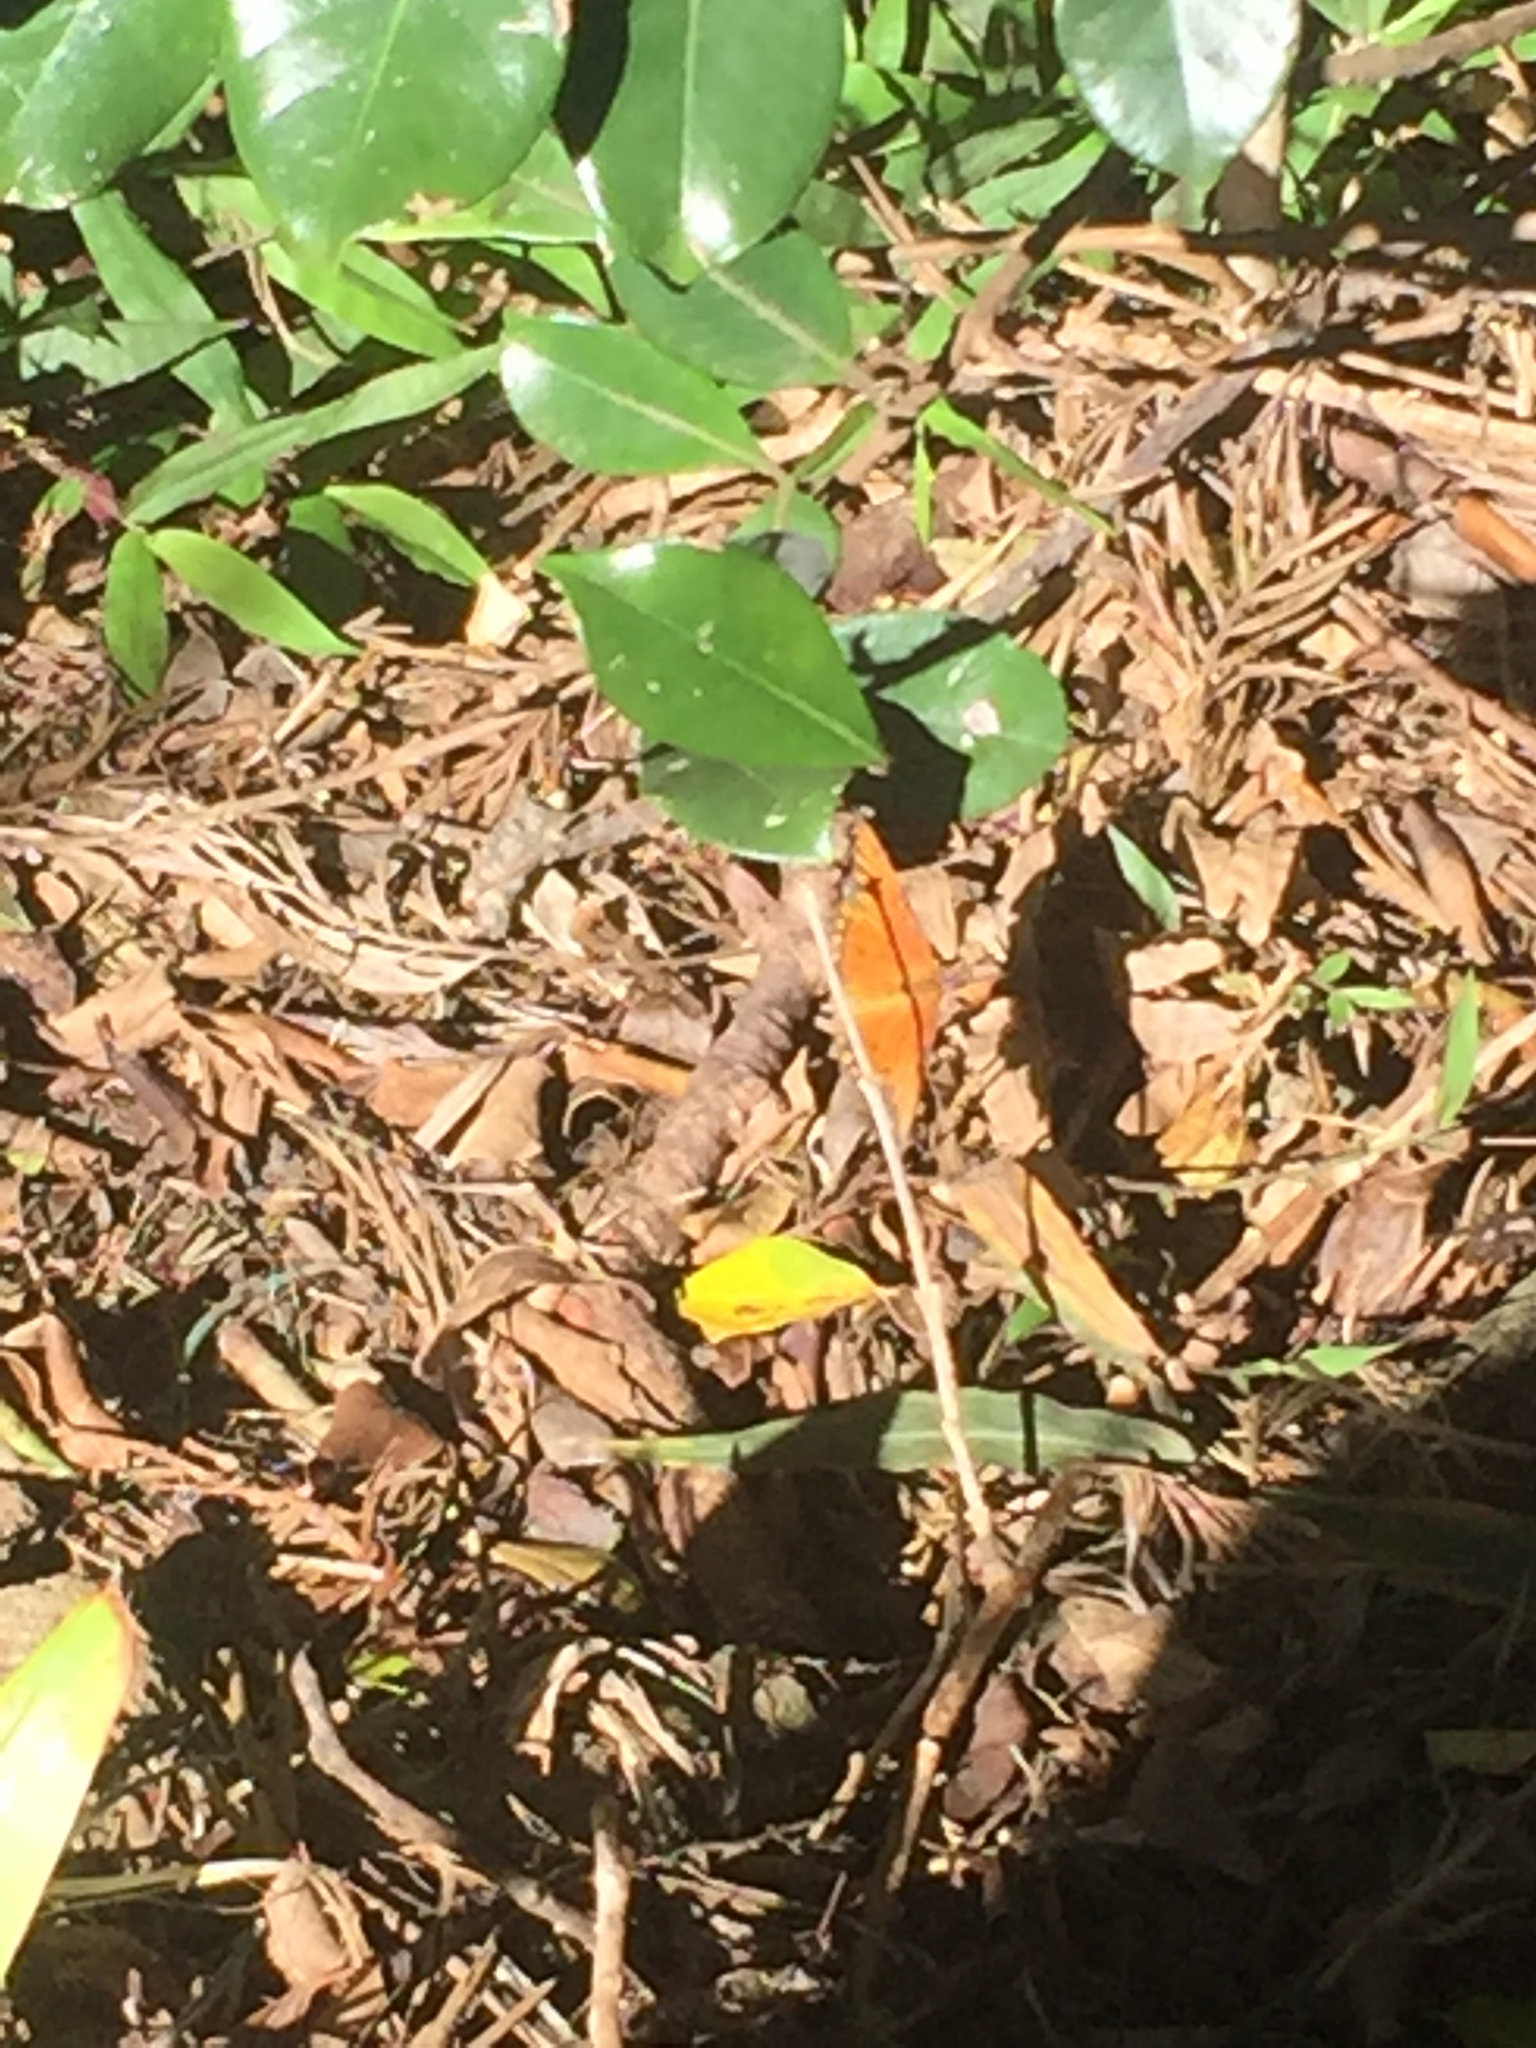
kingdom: Animalia
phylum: Arthropoda
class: Insecta
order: Lepidoptera
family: Nymphalidae
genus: Dione
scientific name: Dione vanillae
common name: Gulf fritillary
